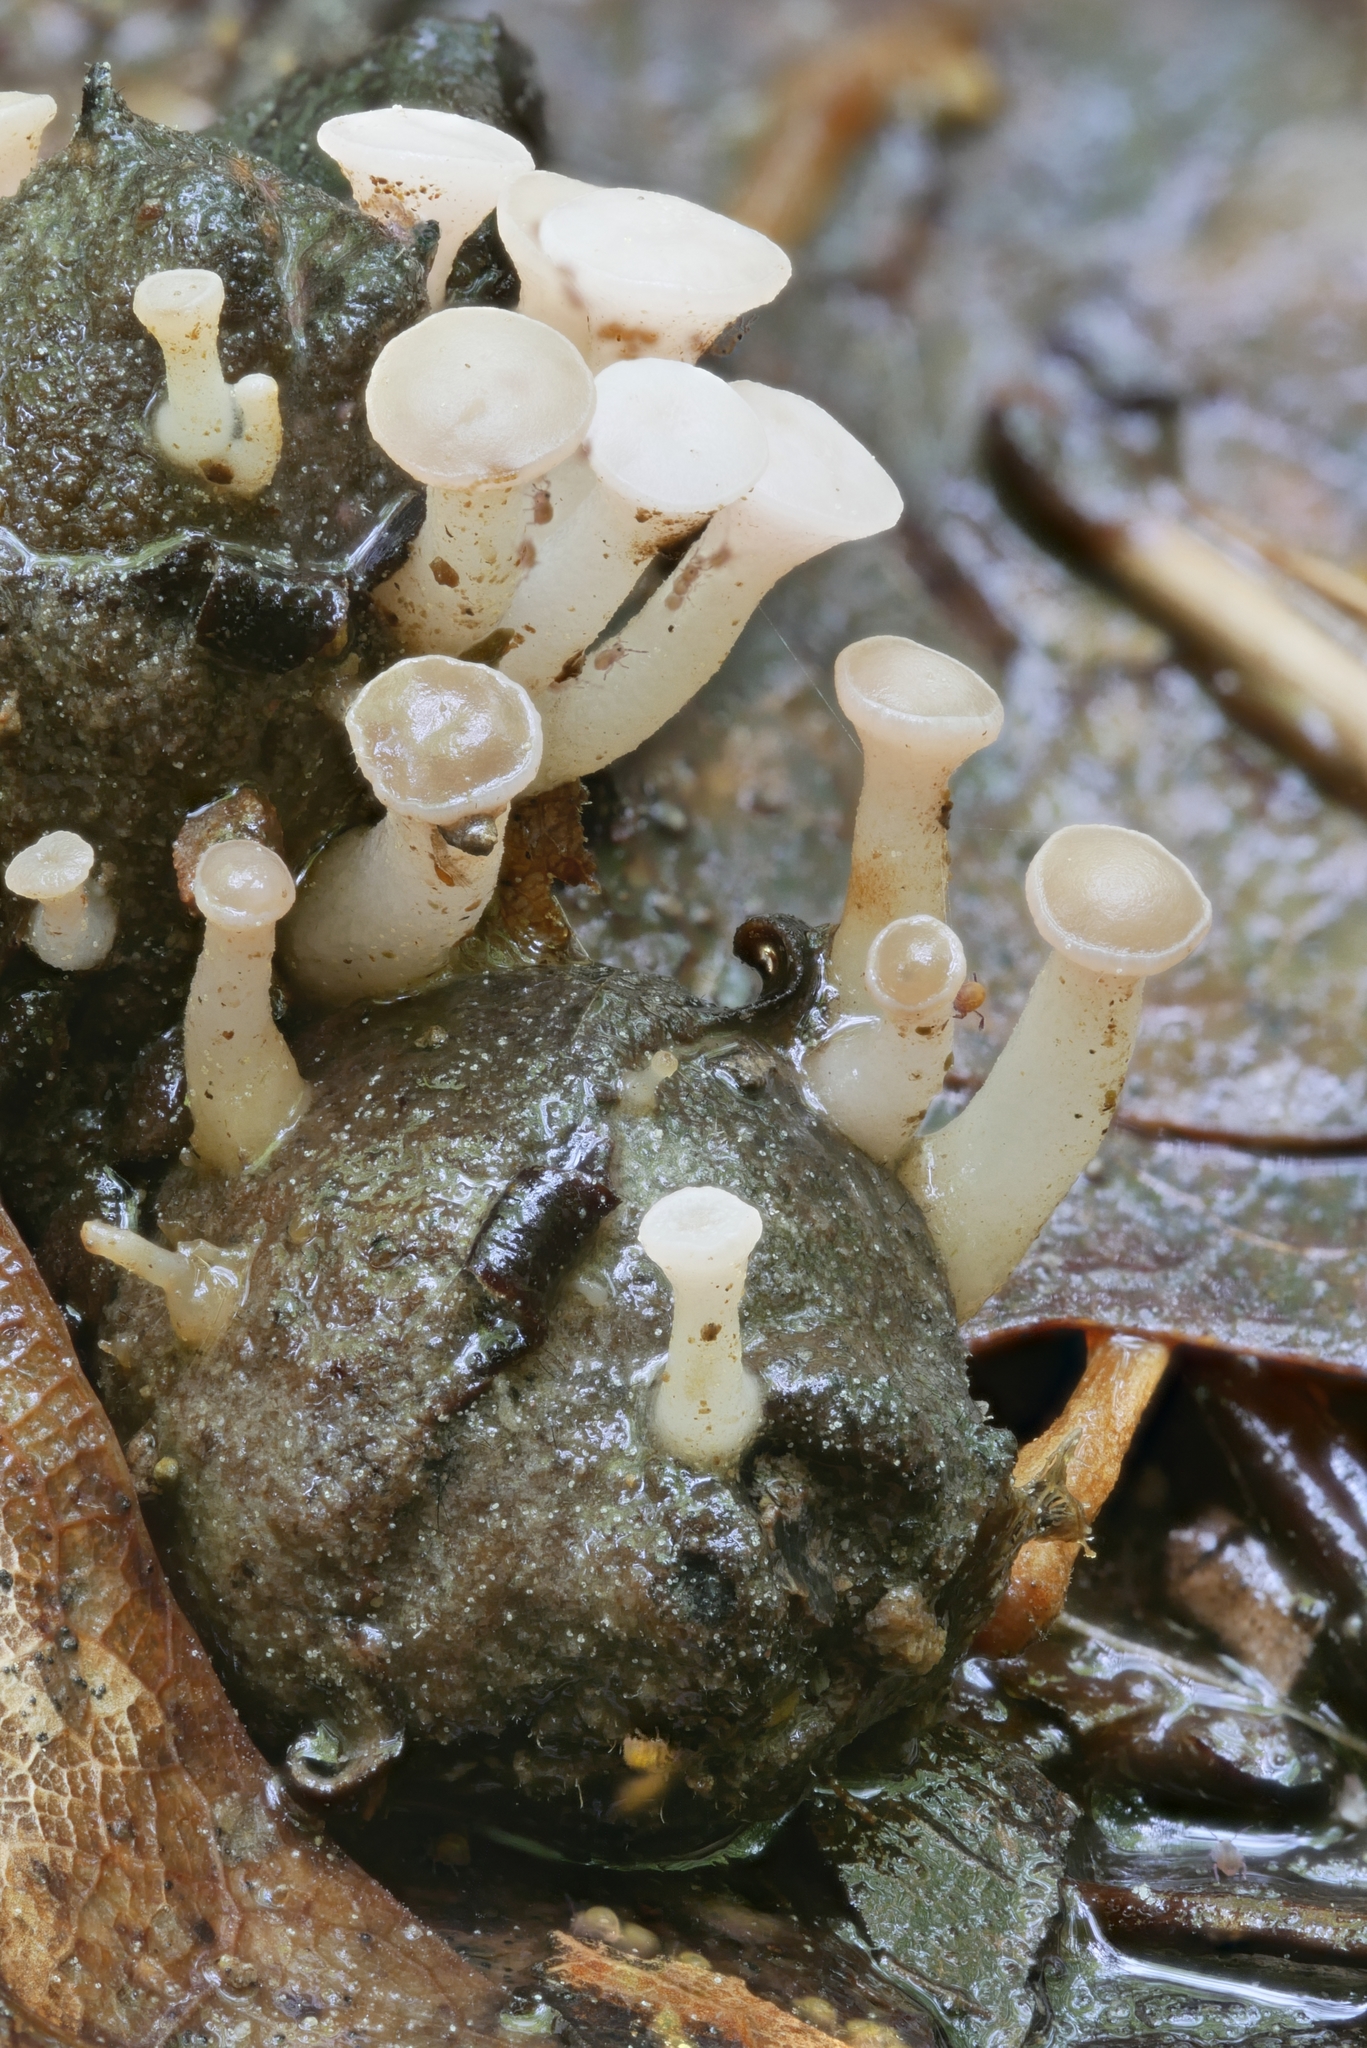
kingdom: Fungi
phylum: Ascomycota
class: Leotiomycetes
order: Helotiales
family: Tricladiaceae
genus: Cudoniella
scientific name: Cudoniella clavus
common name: Spring pin
